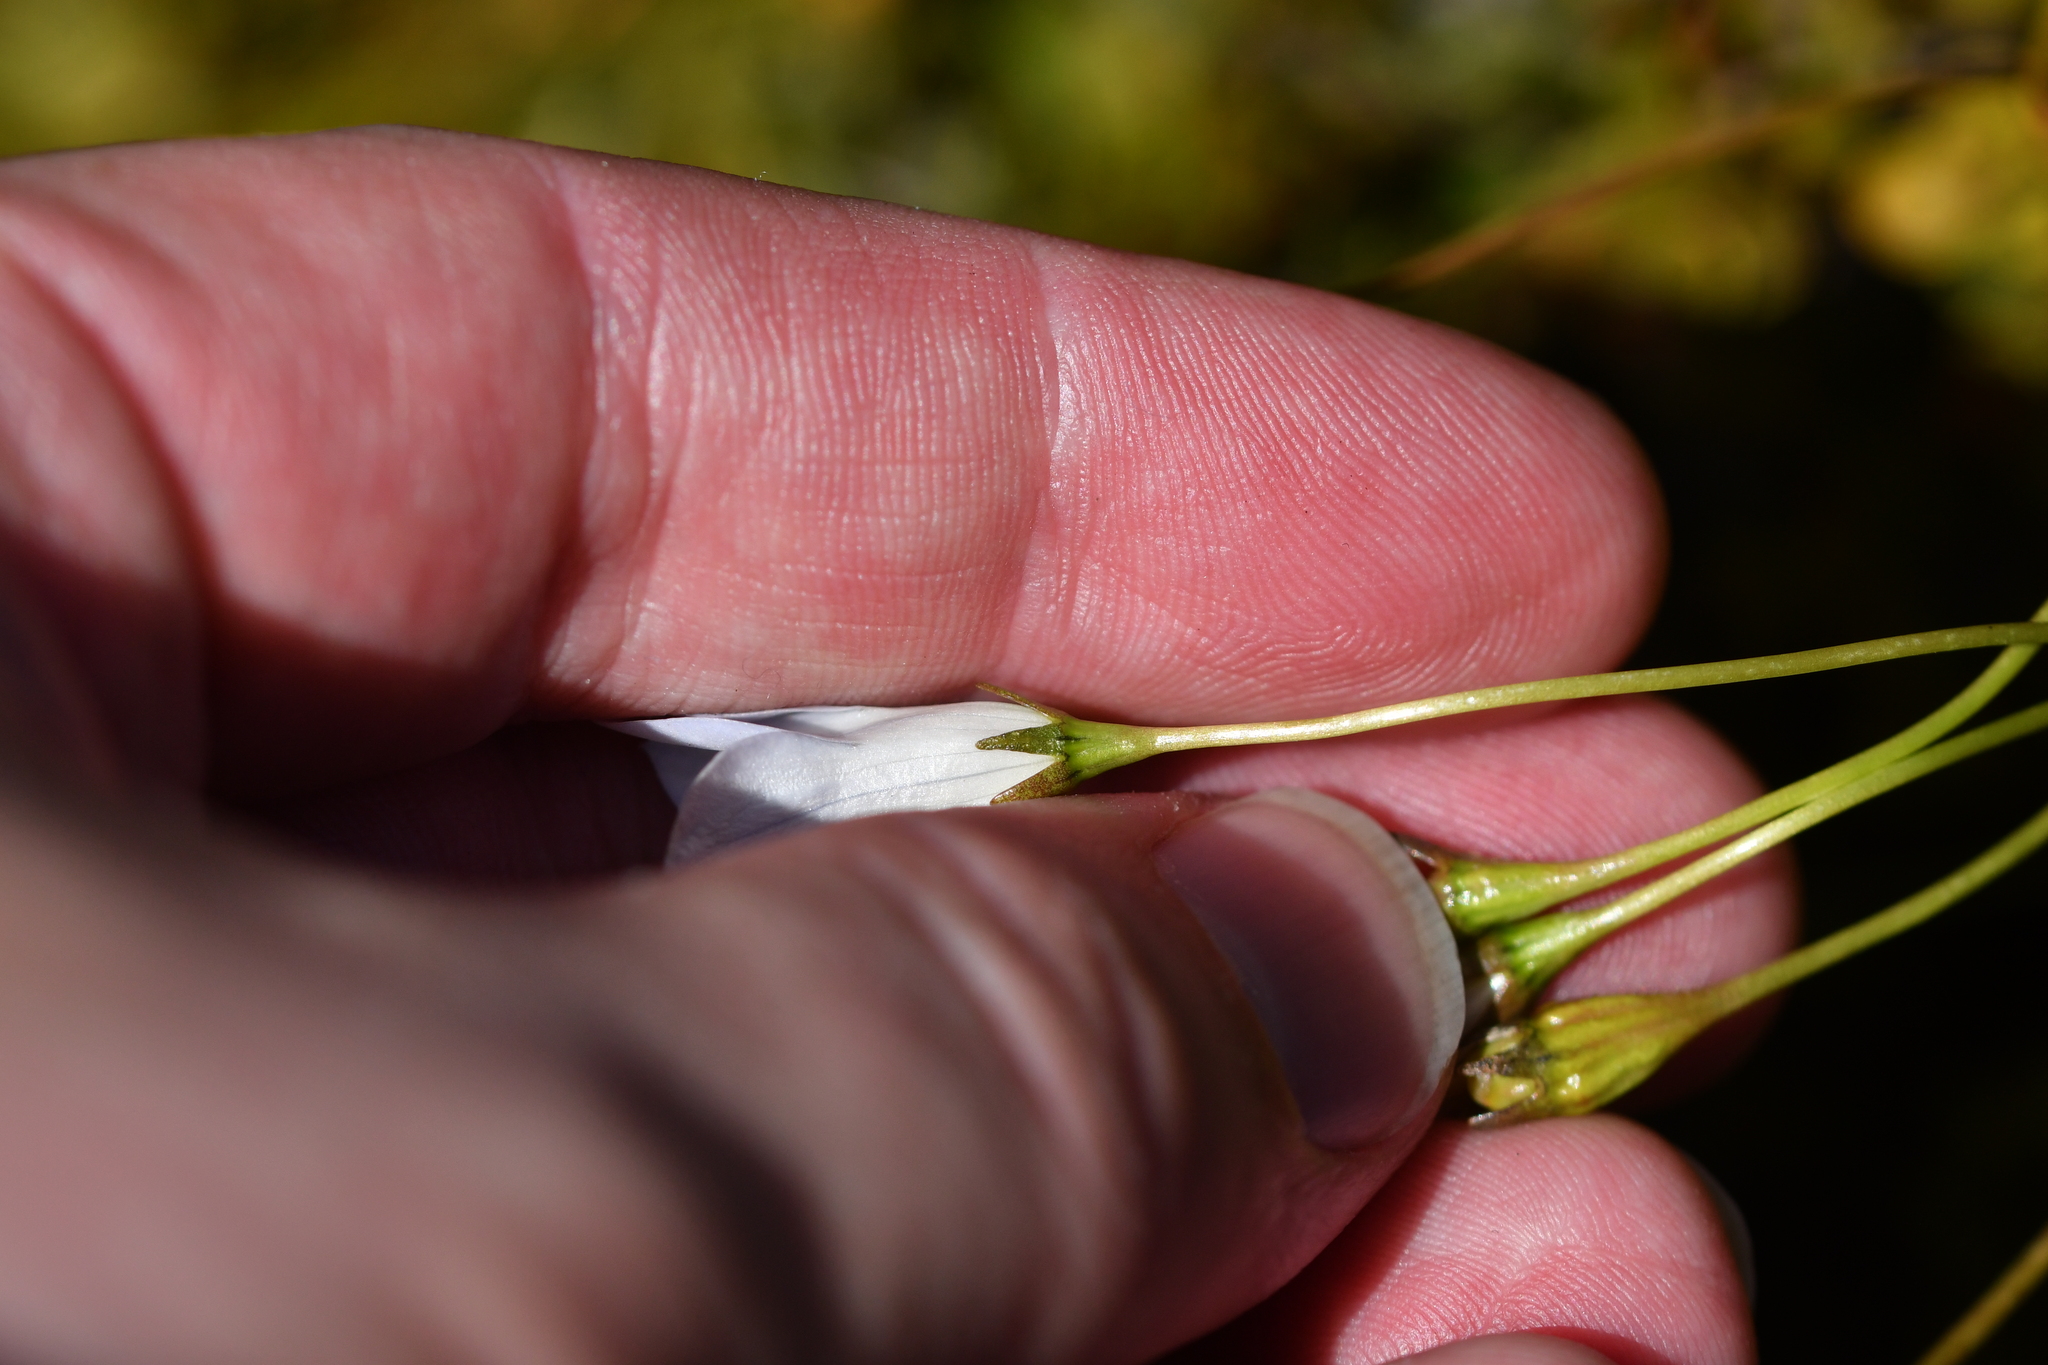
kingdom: Plantae
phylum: Tracheophyta
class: Magnoliopsida
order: Asterales
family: Campanulaceae
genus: Wahlenbergia
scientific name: Wahlenbergia albomarginata
